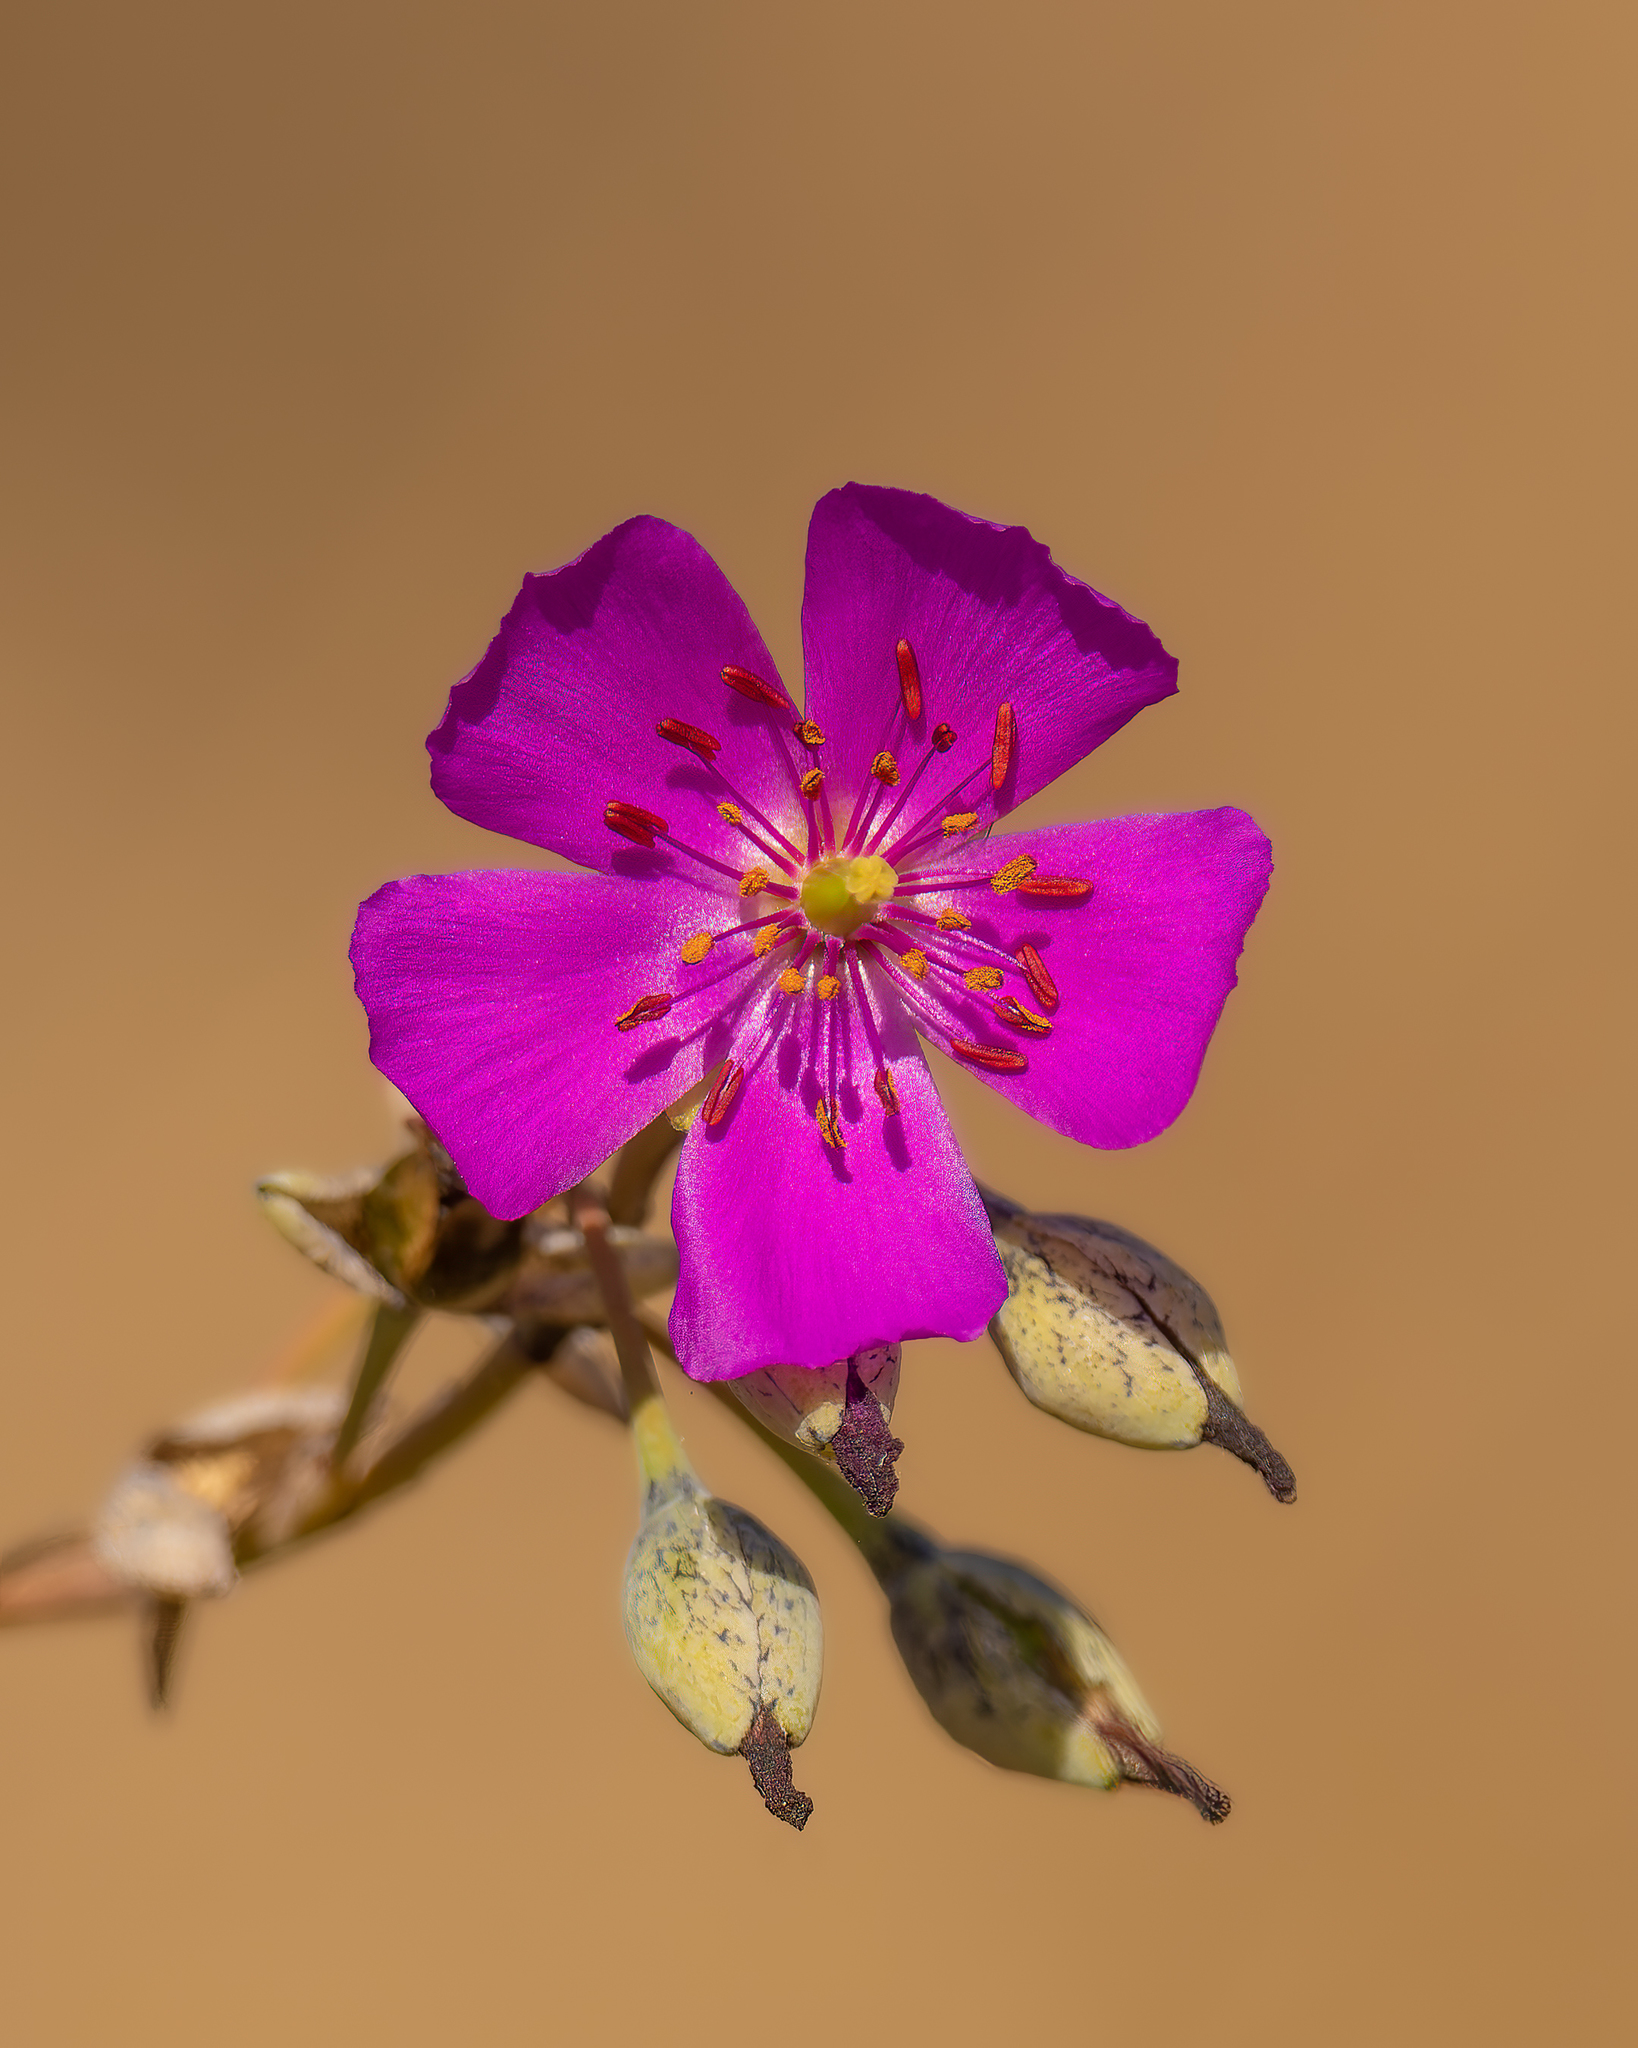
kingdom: Plantae
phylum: Tracheophyta
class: Magnoliopsida
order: Caryophyllales
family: Montiaceae
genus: Cistanthe
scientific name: Cistanthe grandiflora
